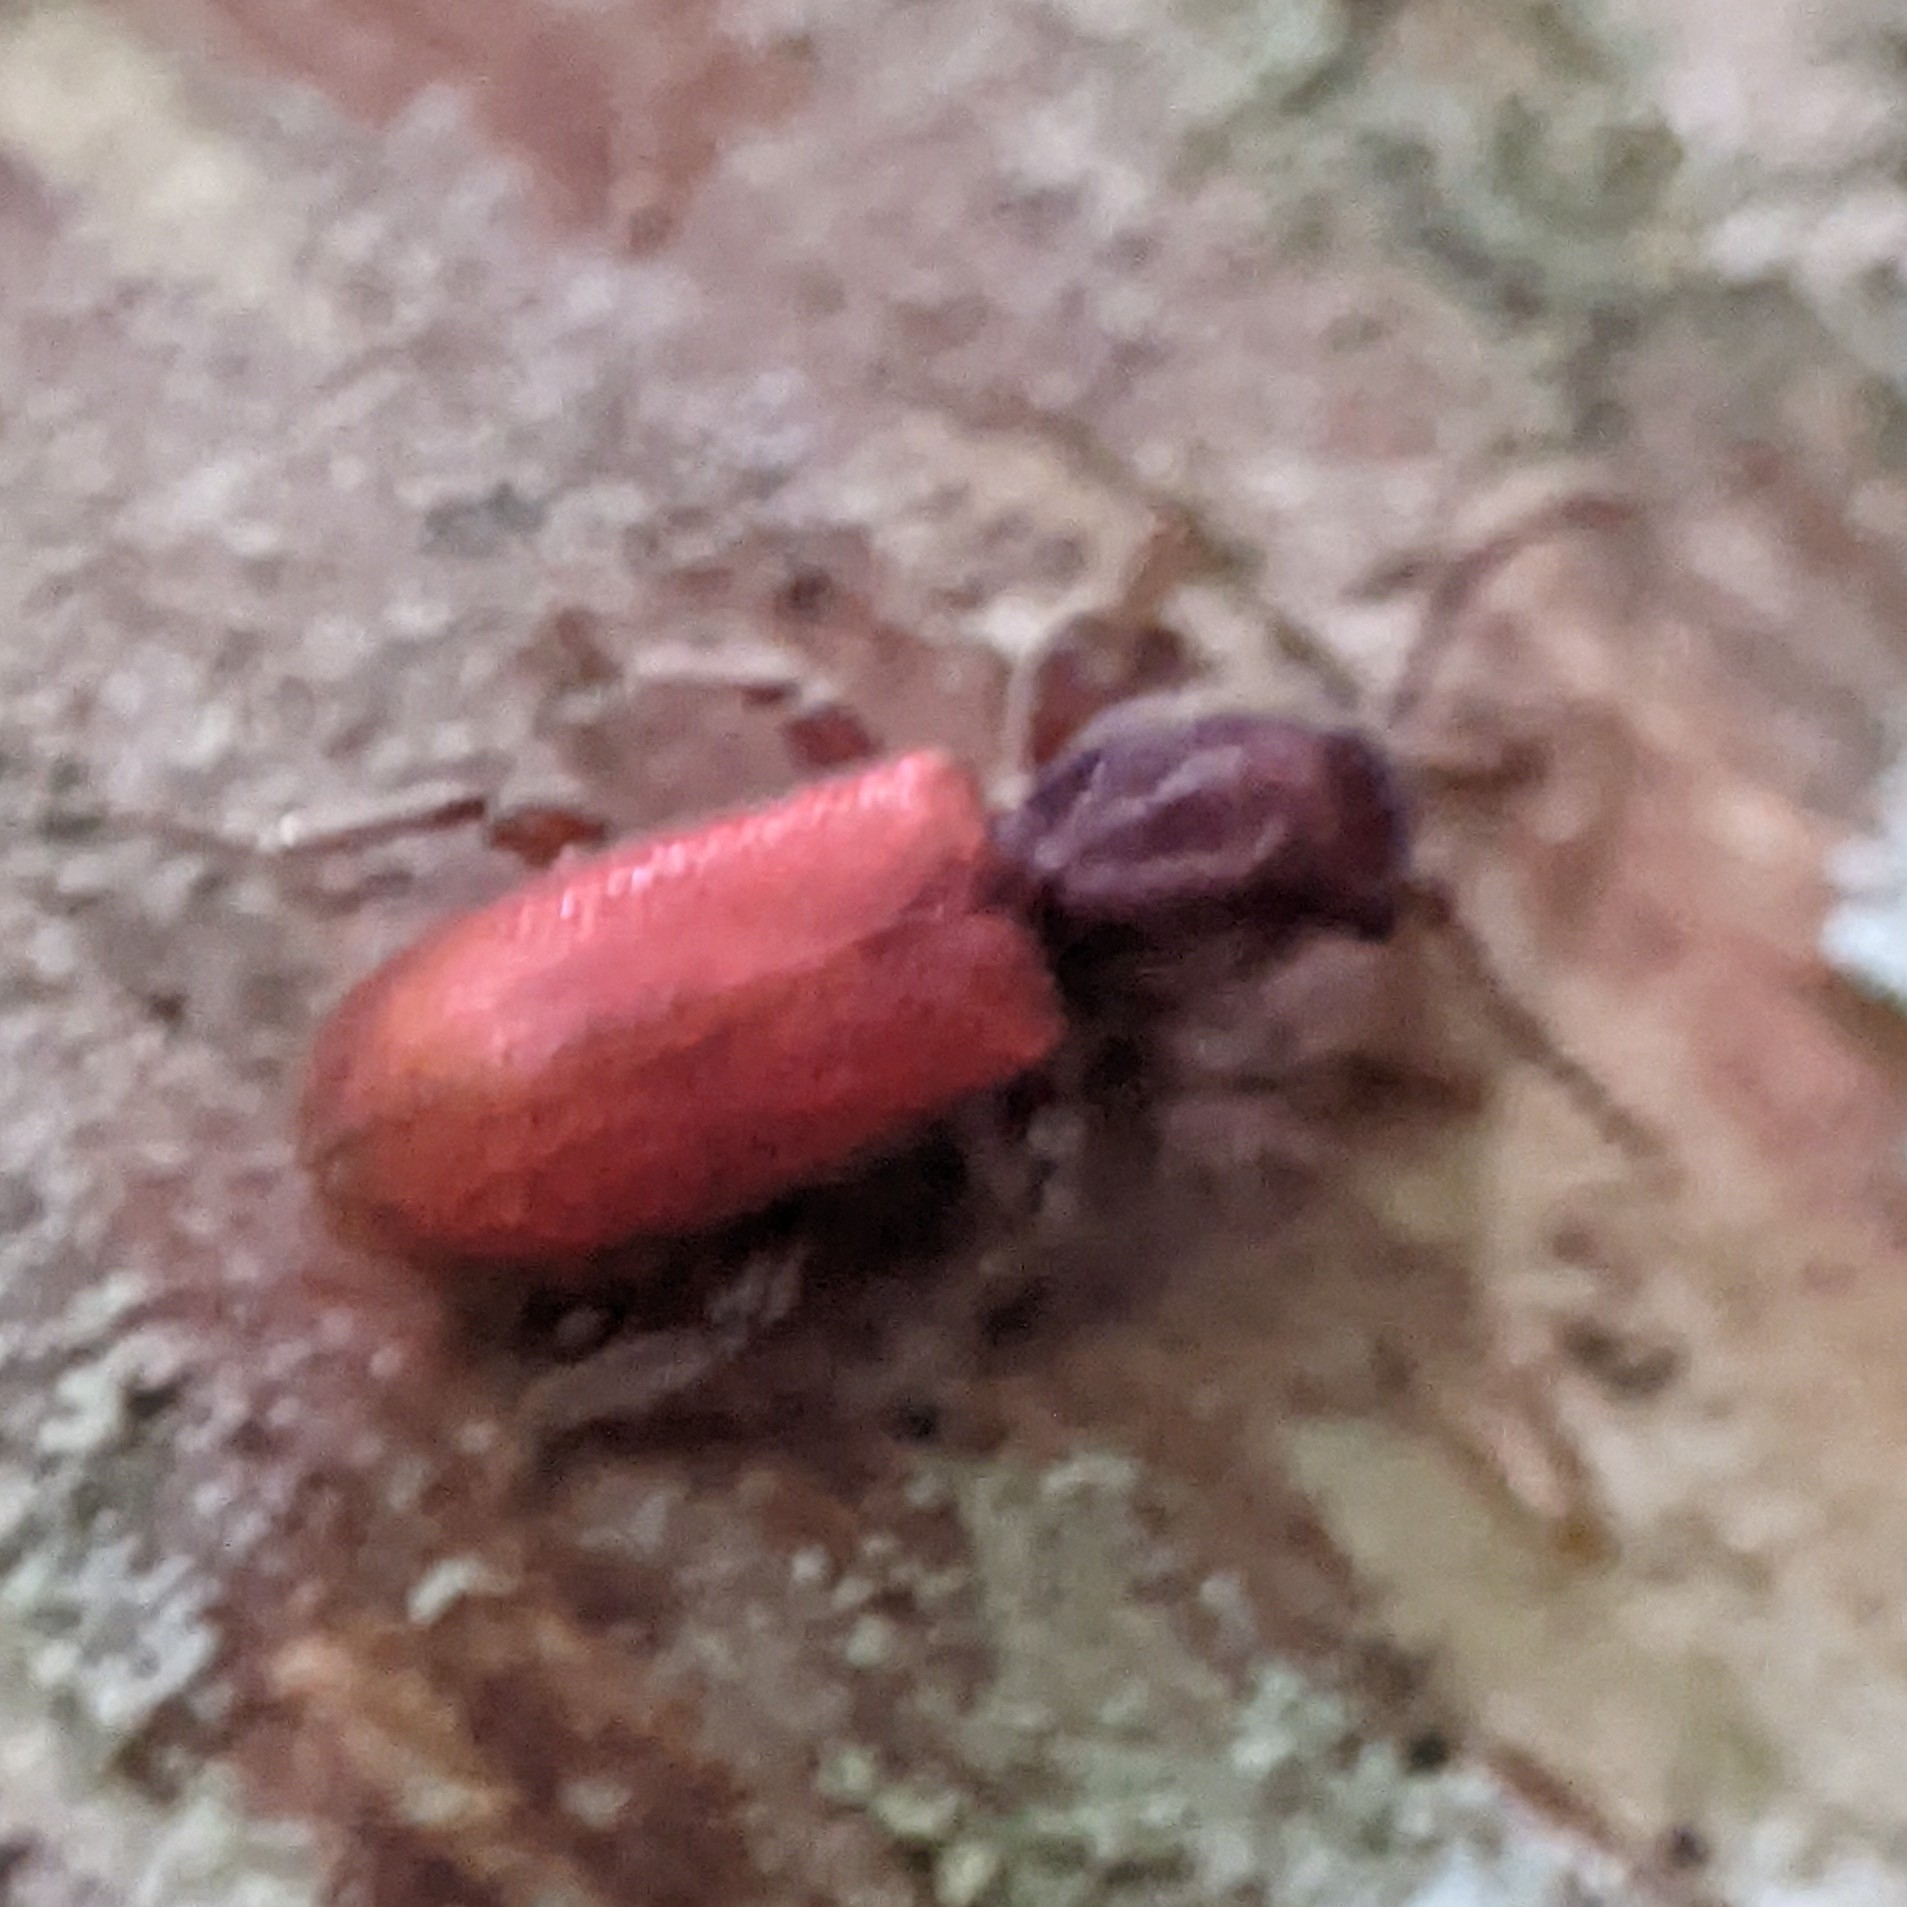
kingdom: Animalia
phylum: Arthropoda
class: Insecta
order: Coleoptera
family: Thanerocleridae
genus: Zenodosus
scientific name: Zenodosus sanguineus
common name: Blood-colored checkered beetle
